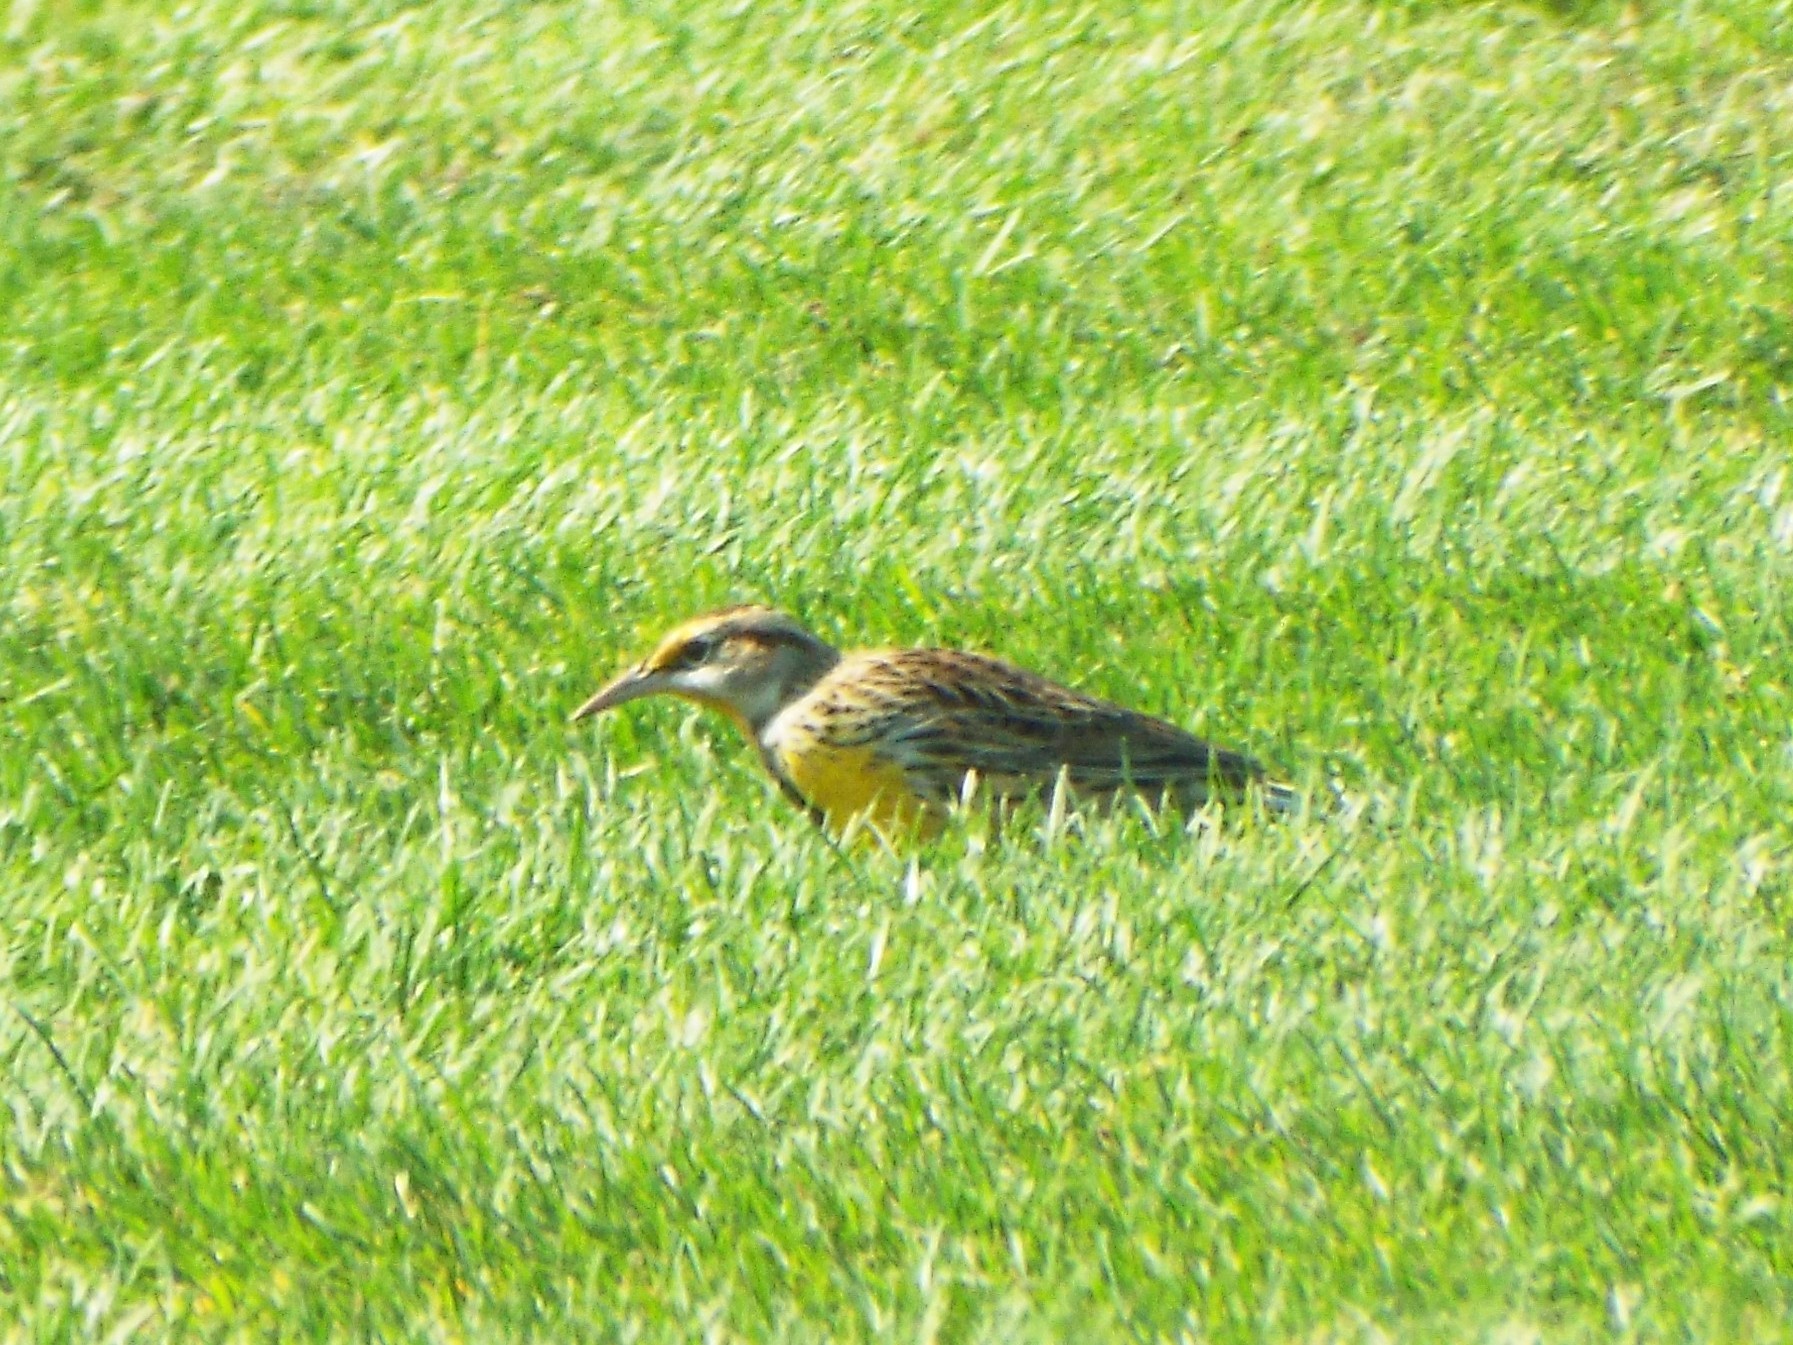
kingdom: Animalia
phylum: Chordata
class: Aves
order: Passeriformes
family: Icteridae
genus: Sturnella
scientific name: Sturnella magna
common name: Eastern meadowlark
